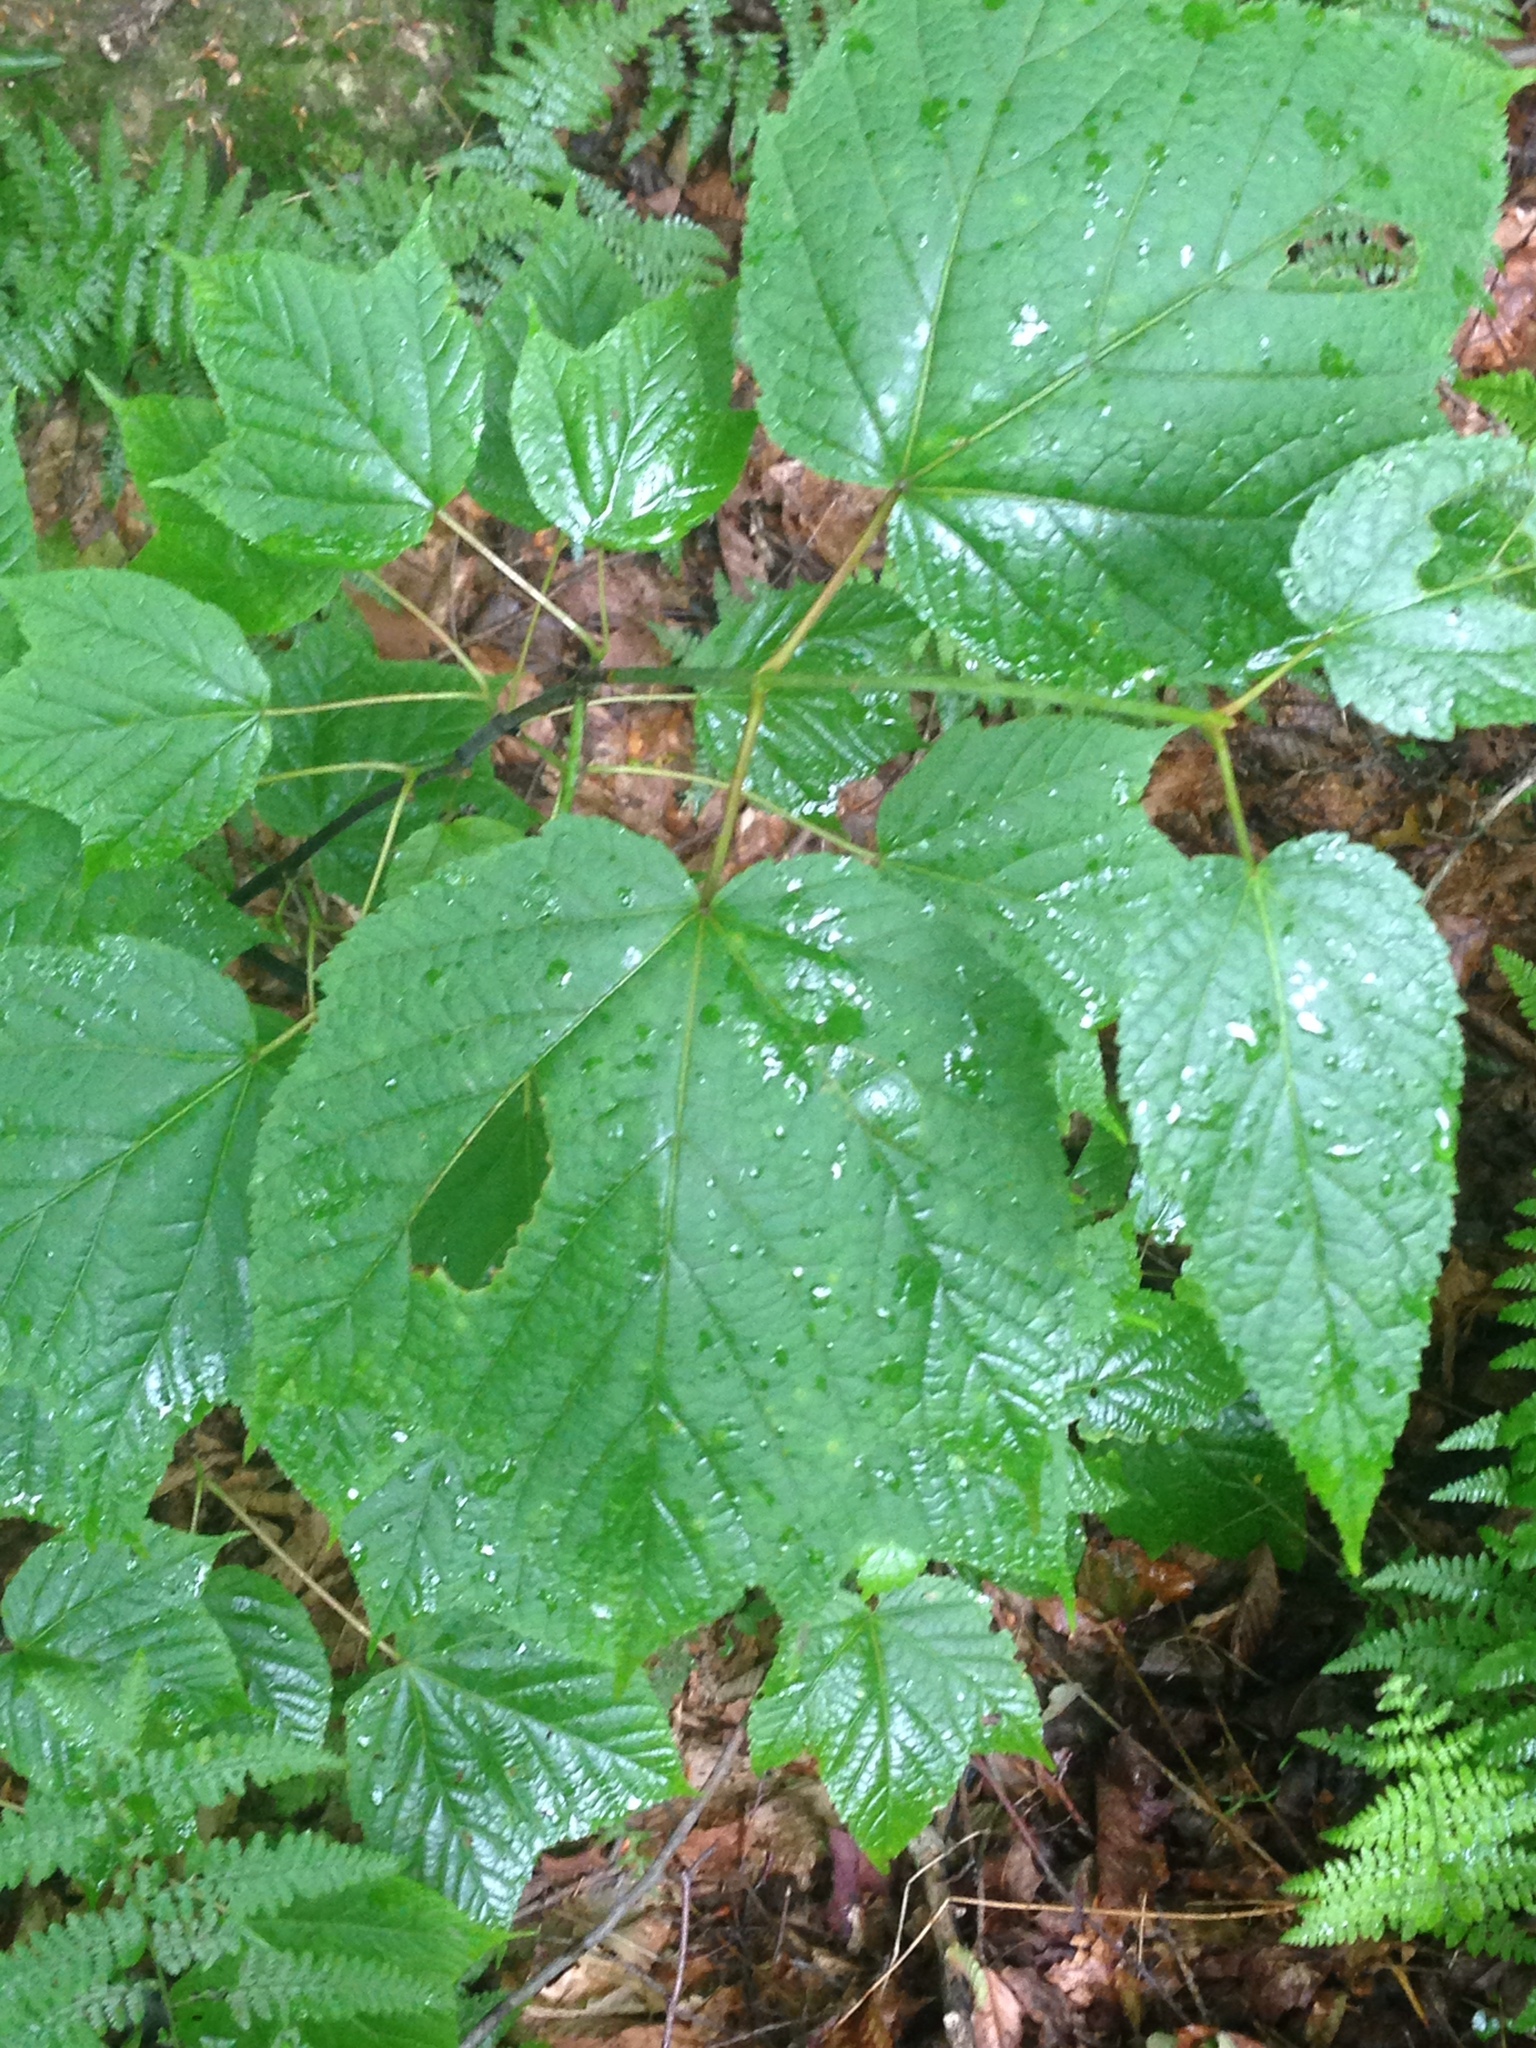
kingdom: Plantae
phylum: Tracheophyta
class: Magnoliopsida
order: Sapindales
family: Sapindaceae
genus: Acer
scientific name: Acer pensylvanicum
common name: Moosewood
